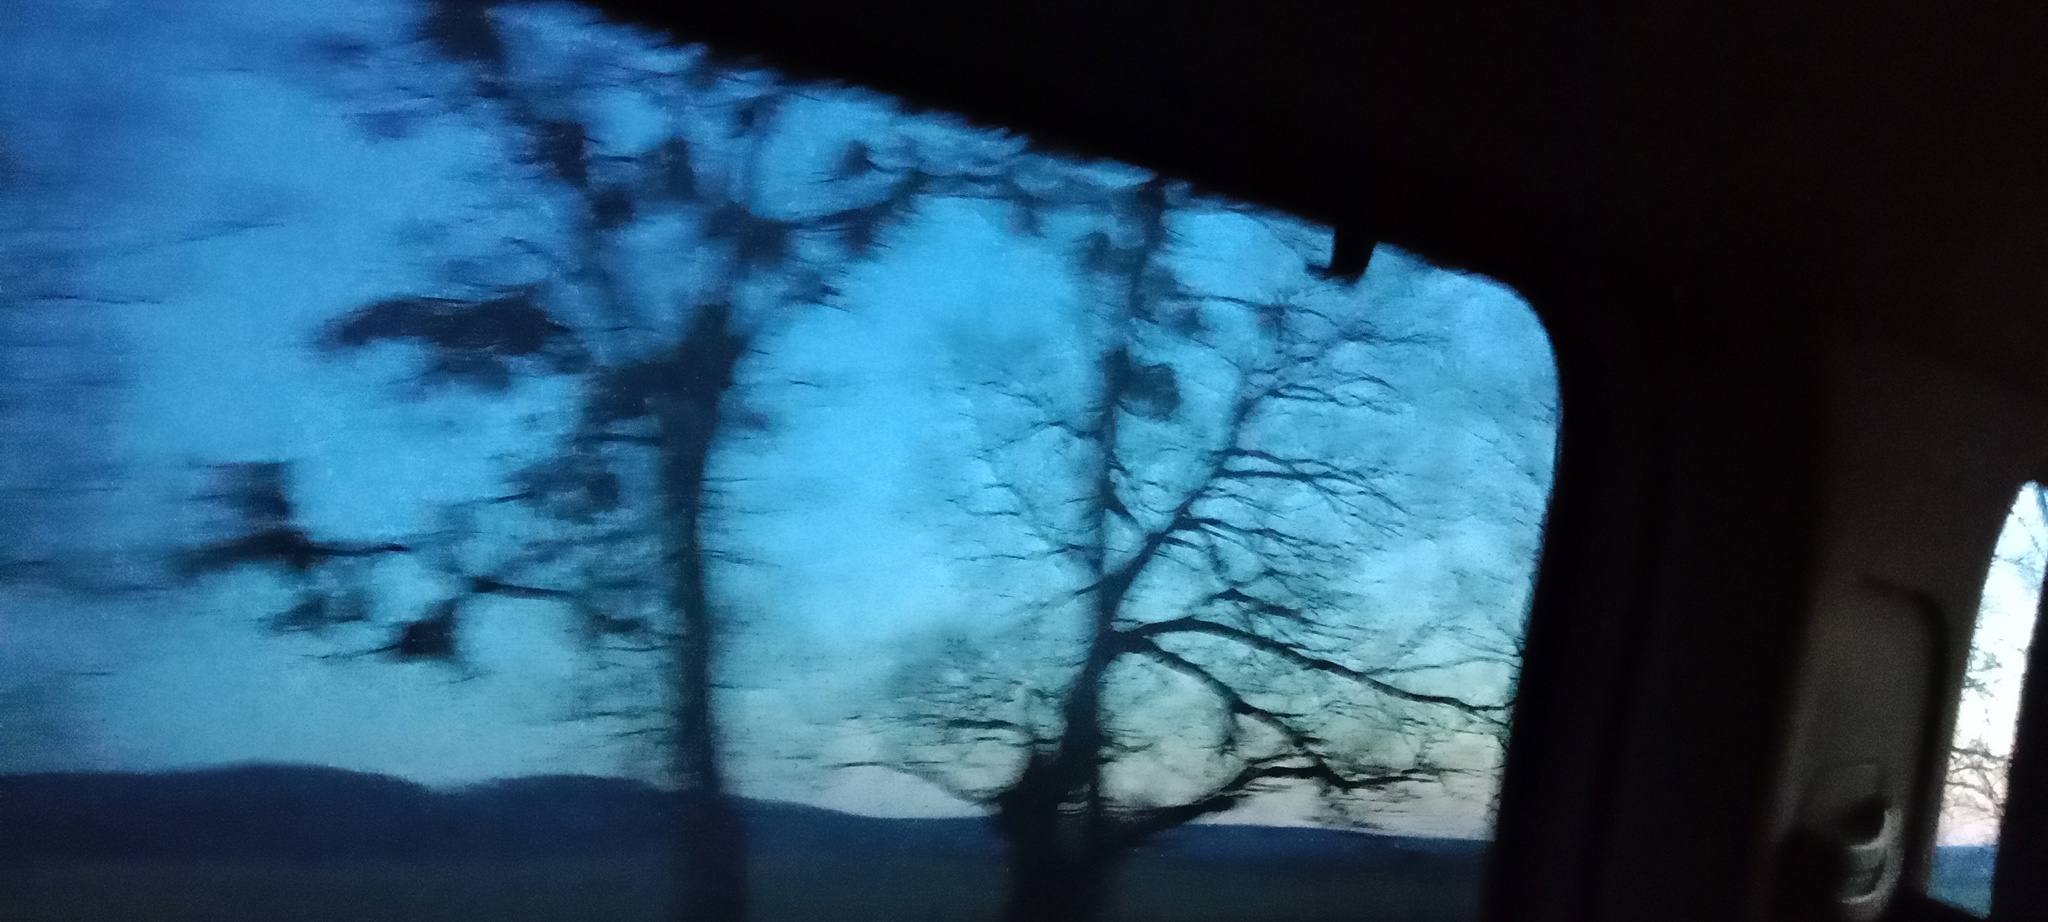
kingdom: Plantae
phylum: Tracheophyta
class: Magnoliopsida
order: Santalales
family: Viscaceae
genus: Viscum
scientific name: Viscum album
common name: Mistletoe
